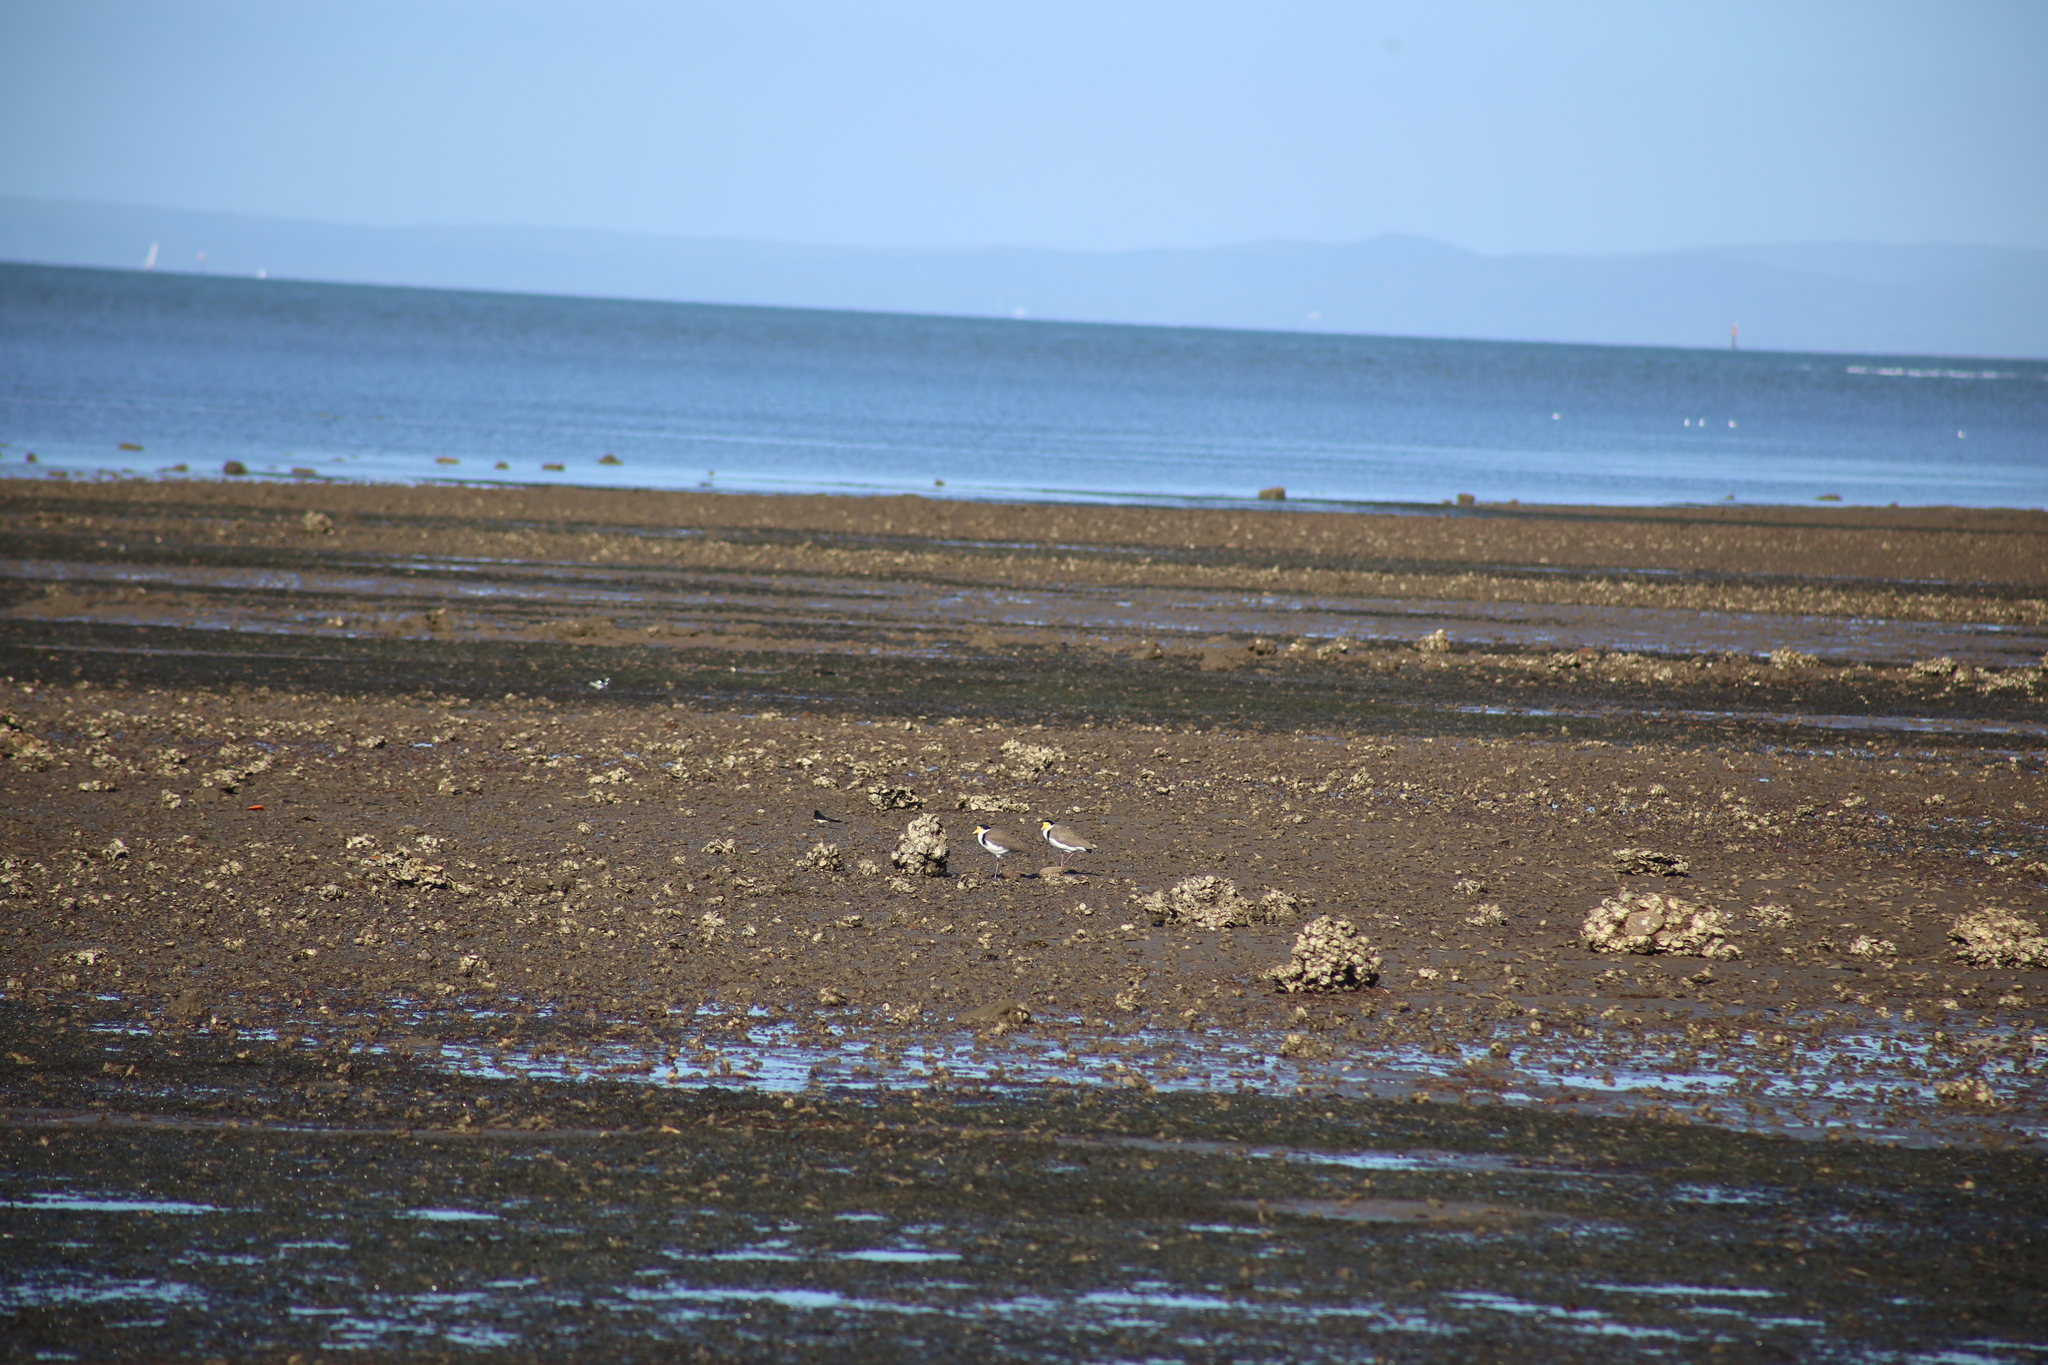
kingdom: Animalia
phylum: Chordata
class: Aves
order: Charadriiformes
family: Charadriidae
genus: Vanellus
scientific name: Vanellus miles
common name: Masked lapwing
